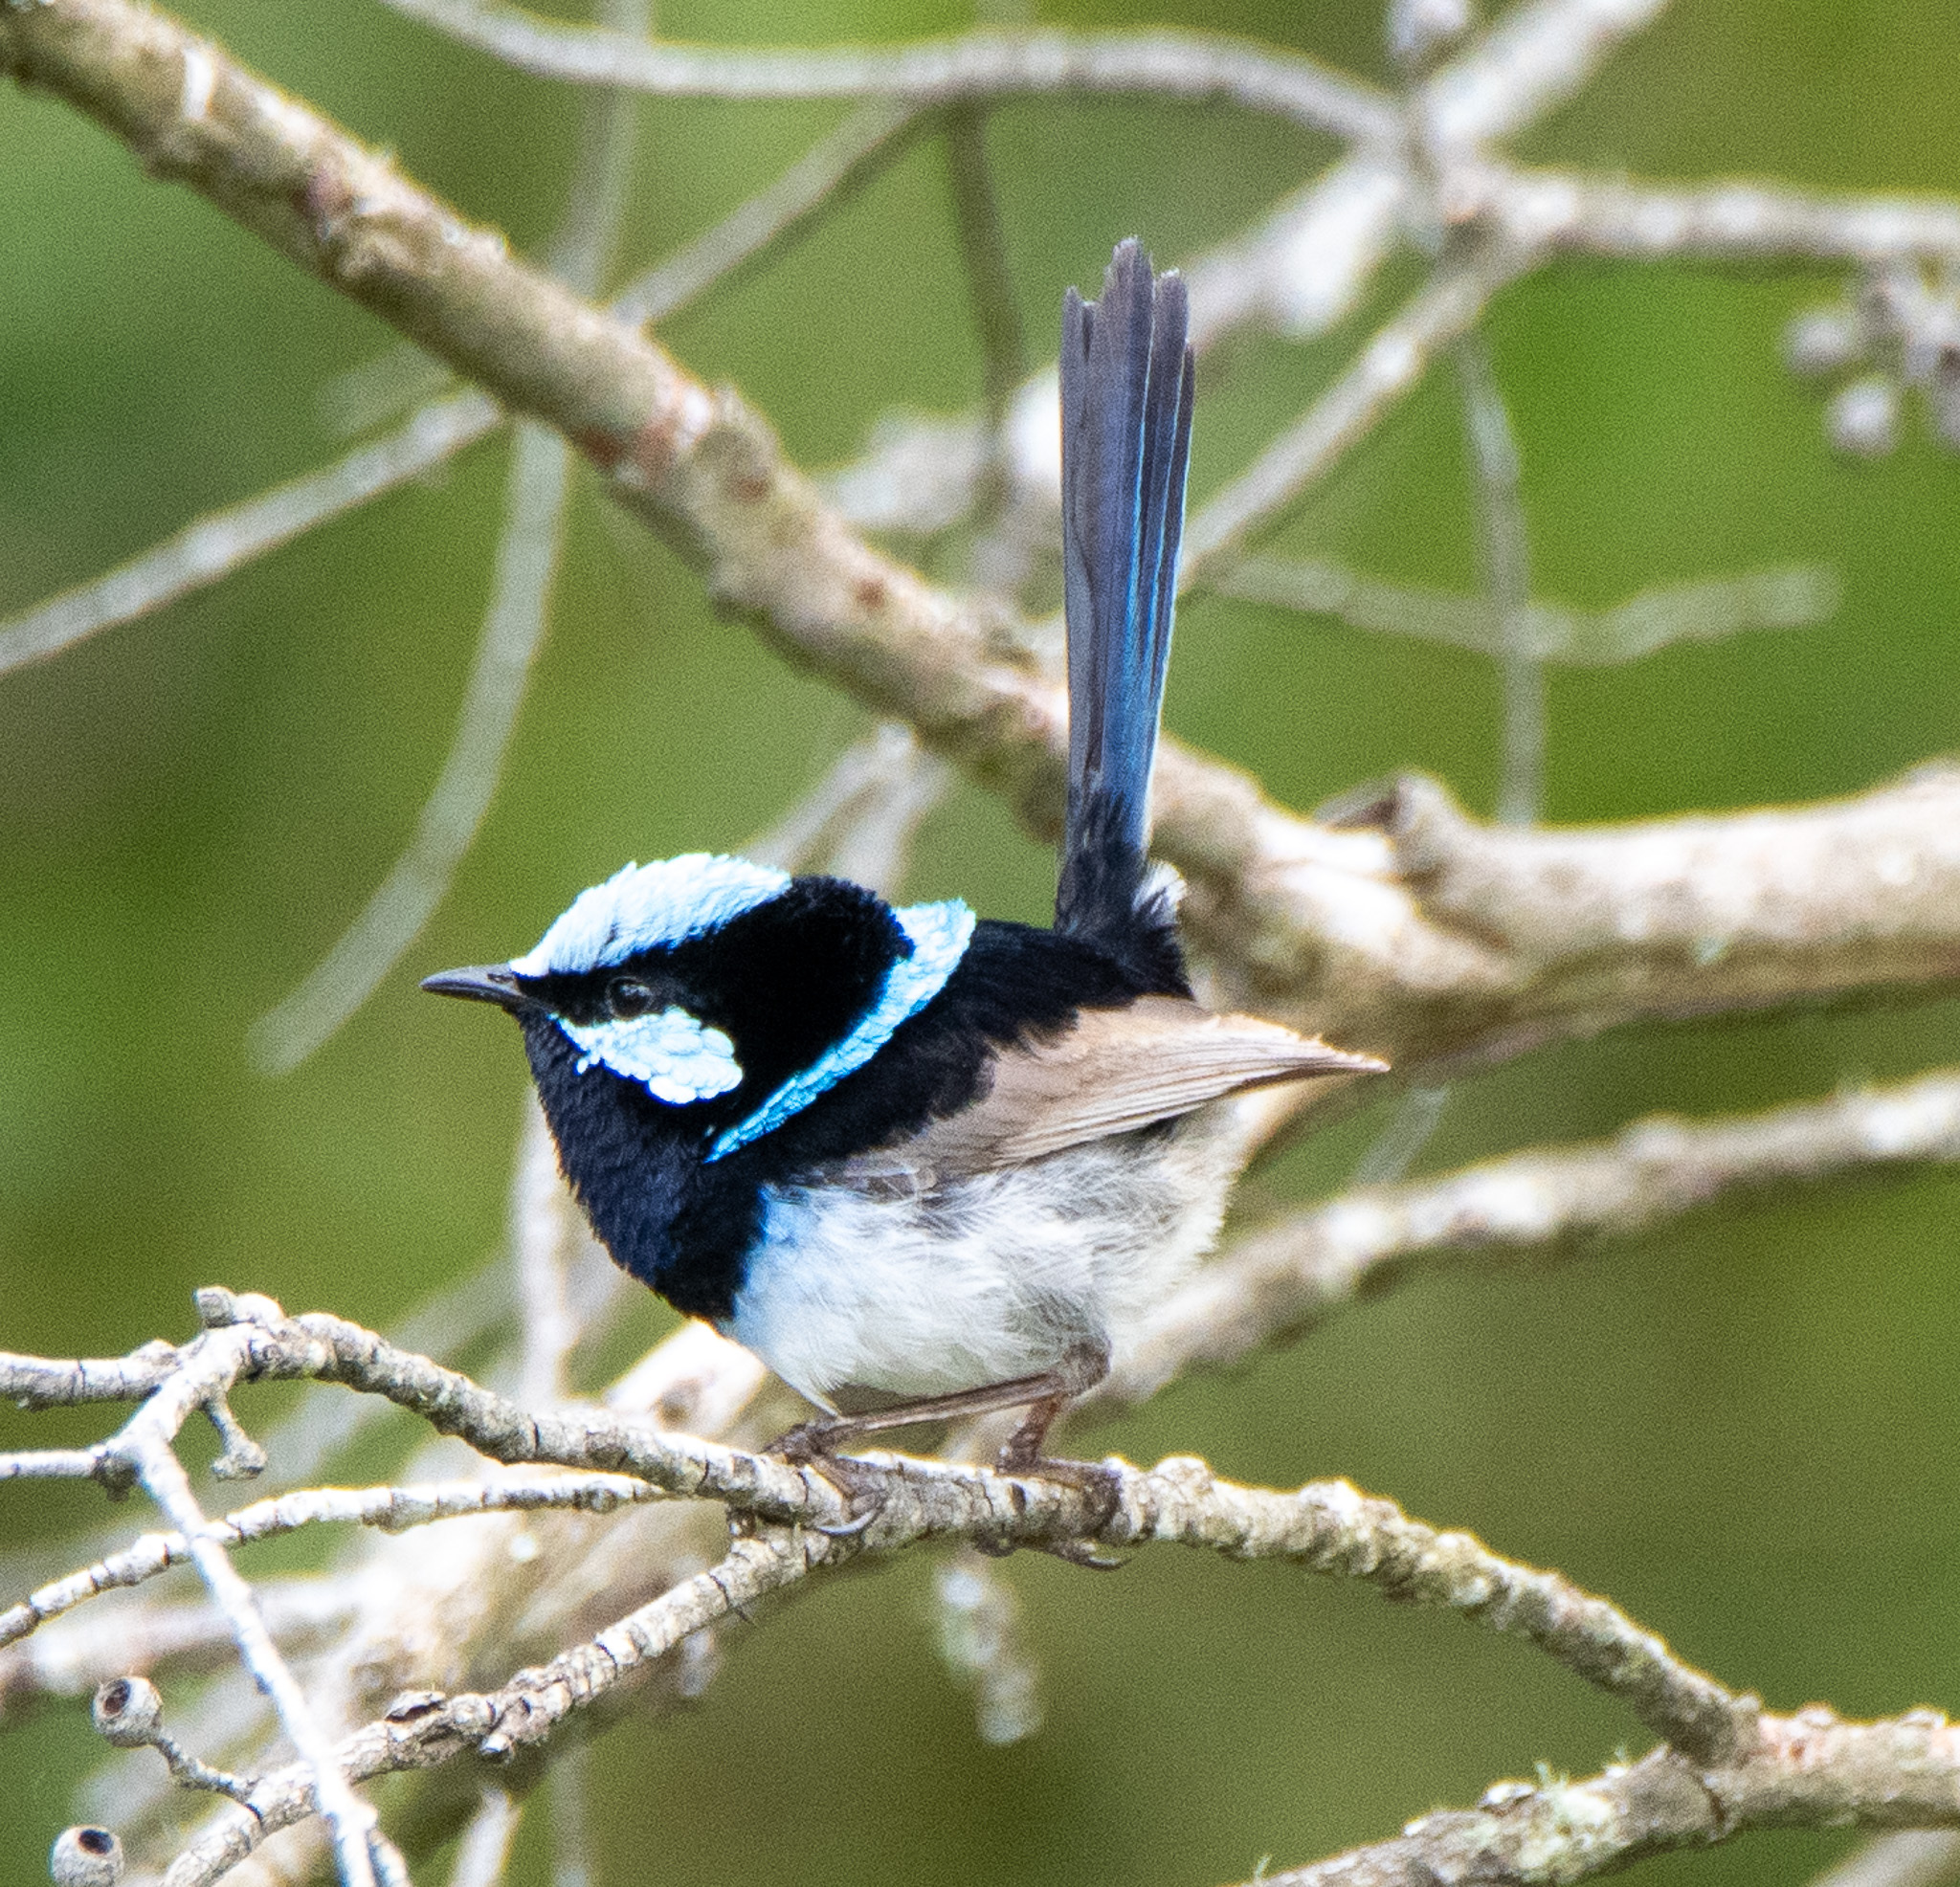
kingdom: Animalia
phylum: Chordata
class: Aves
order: Passeriformes
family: Maluridae
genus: Malurus
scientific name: Malurus cyaneus
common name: Superb fairywren
